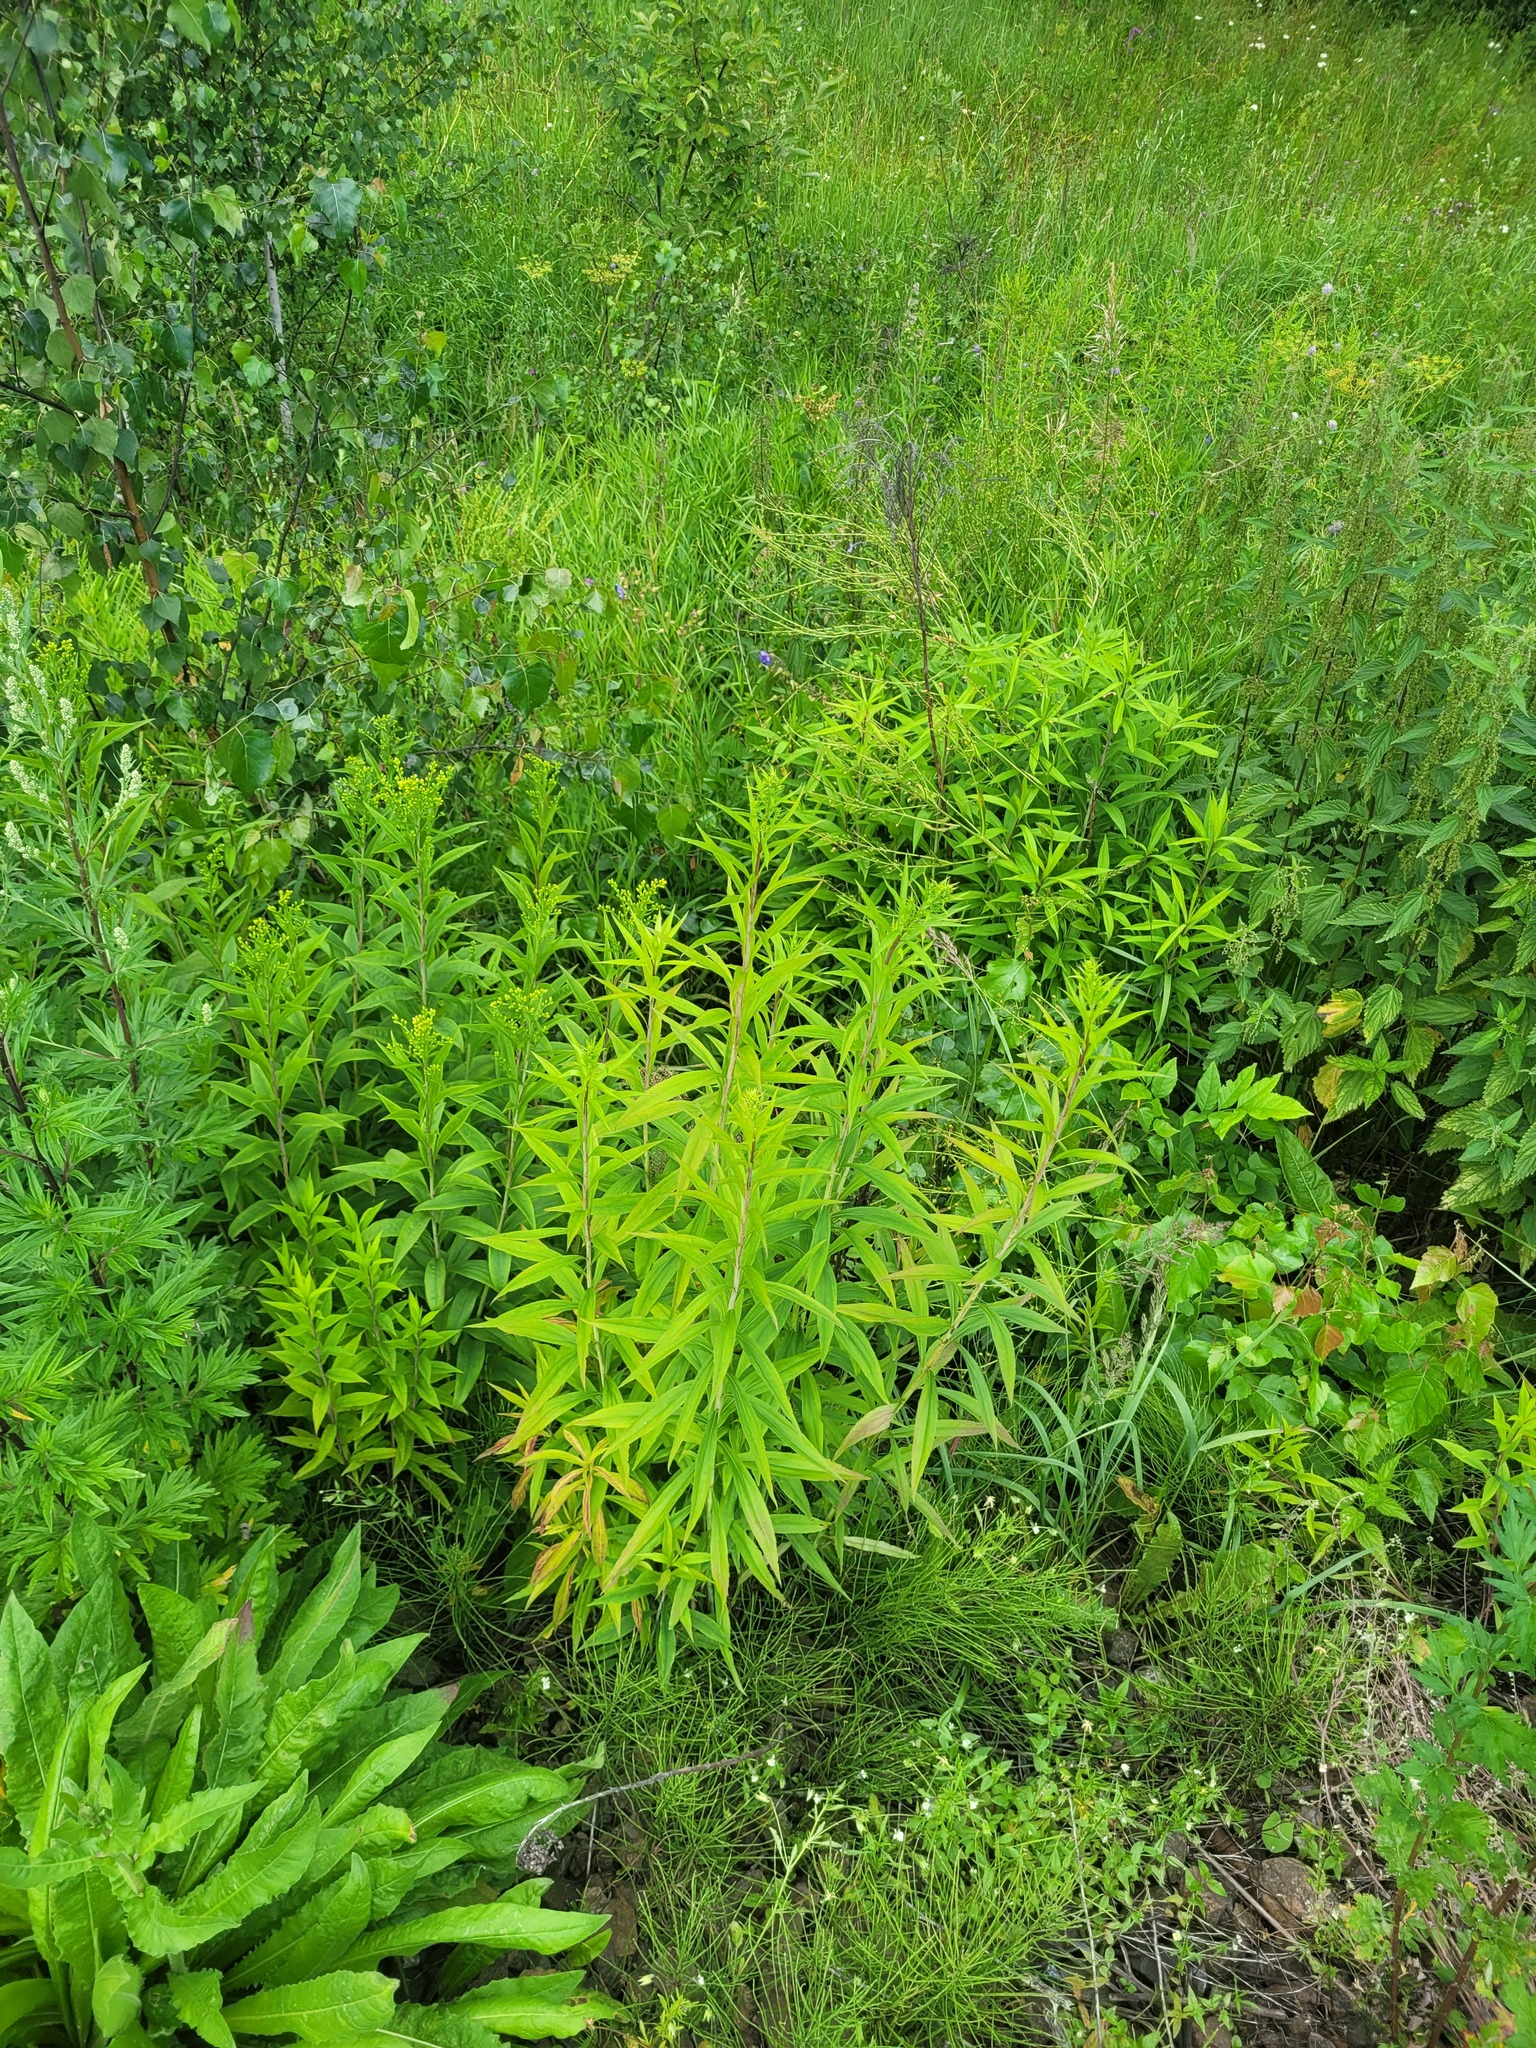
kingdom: Plantae
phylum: Tracheophyta
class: Magnoliopsida
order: Asterales
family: Asteraceae
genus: Solidago
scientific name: Solidago gigantea
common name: Giant goldenrod
